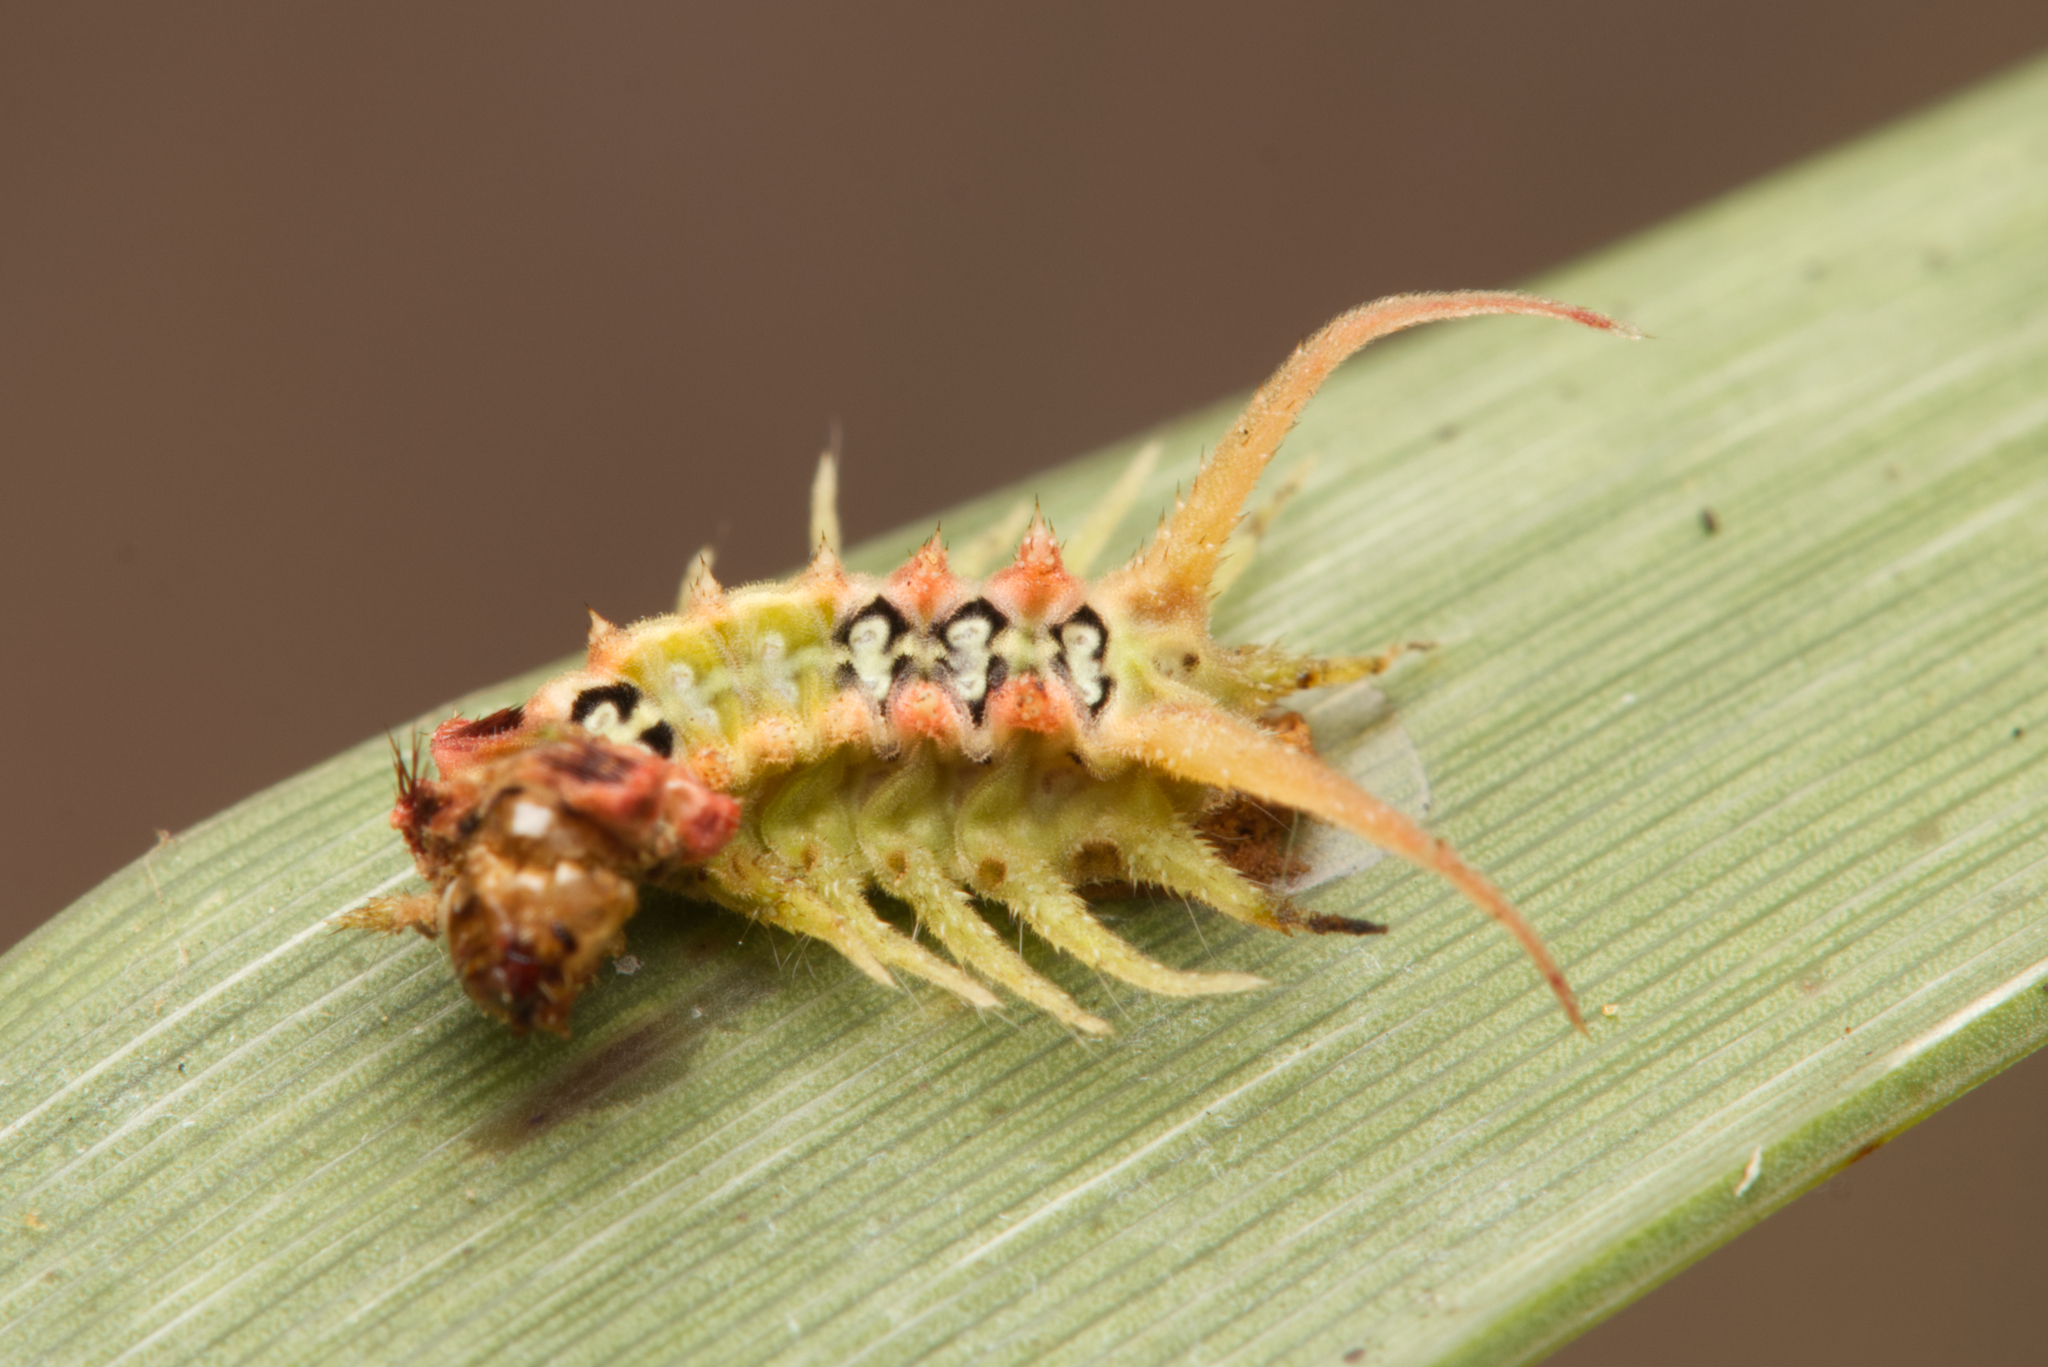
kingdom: Animalia
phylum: Arthropoda
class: Insecta
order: Lepidoptera
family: Limacodidae
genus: Doratifera
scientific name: Doratifera quadriguttata
